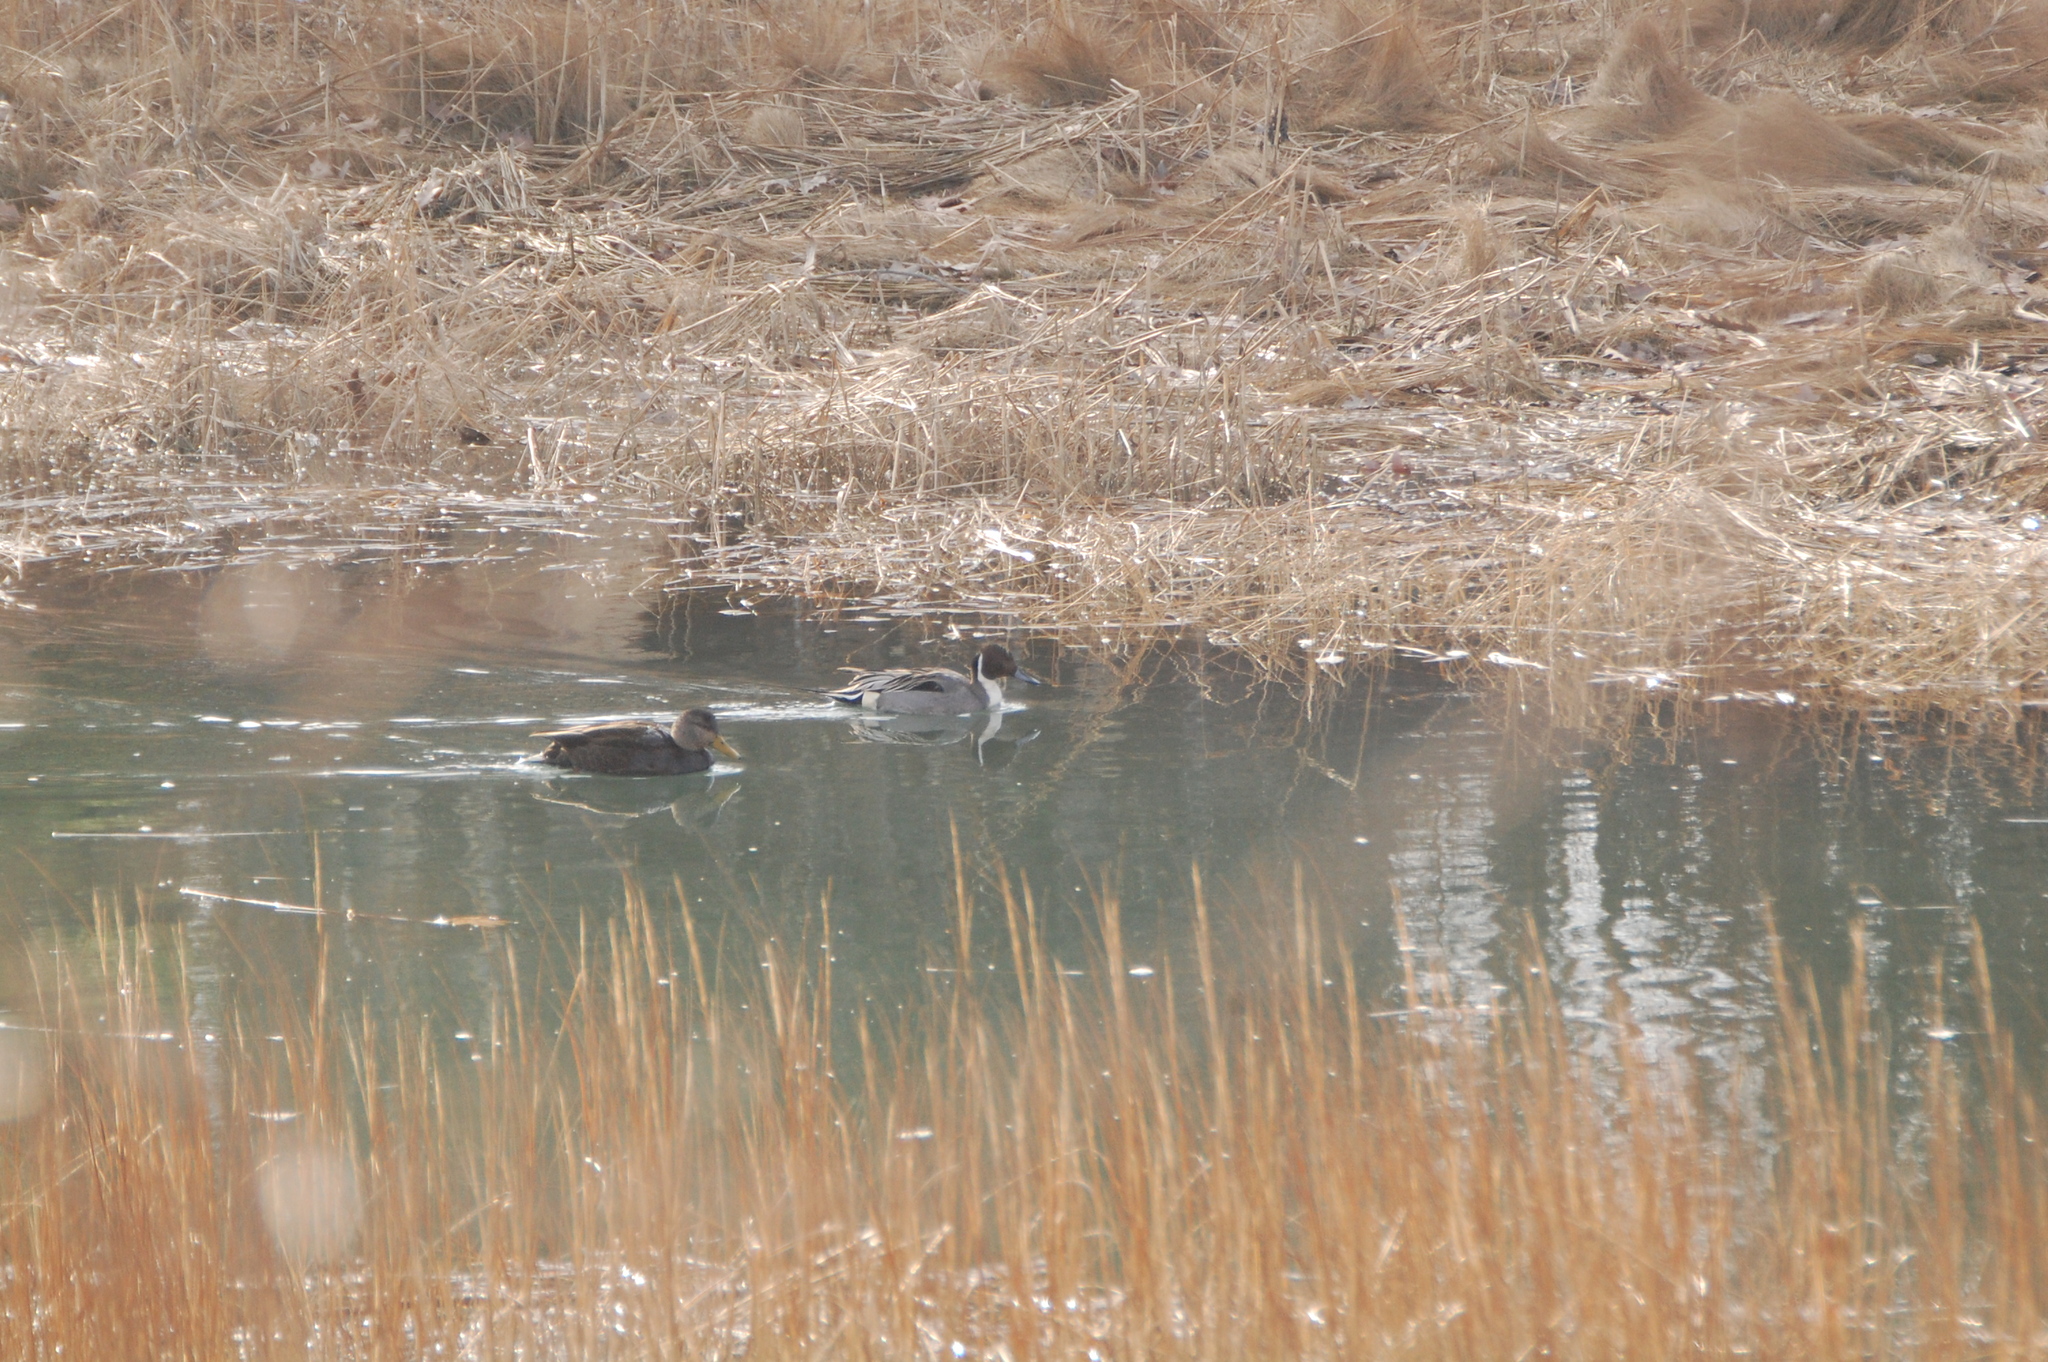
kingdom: Animalia
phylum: Chordata
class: Aves
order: Anseriformes
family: Anatidae
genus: Anas
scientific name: Anas rubripes
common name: American black duck
